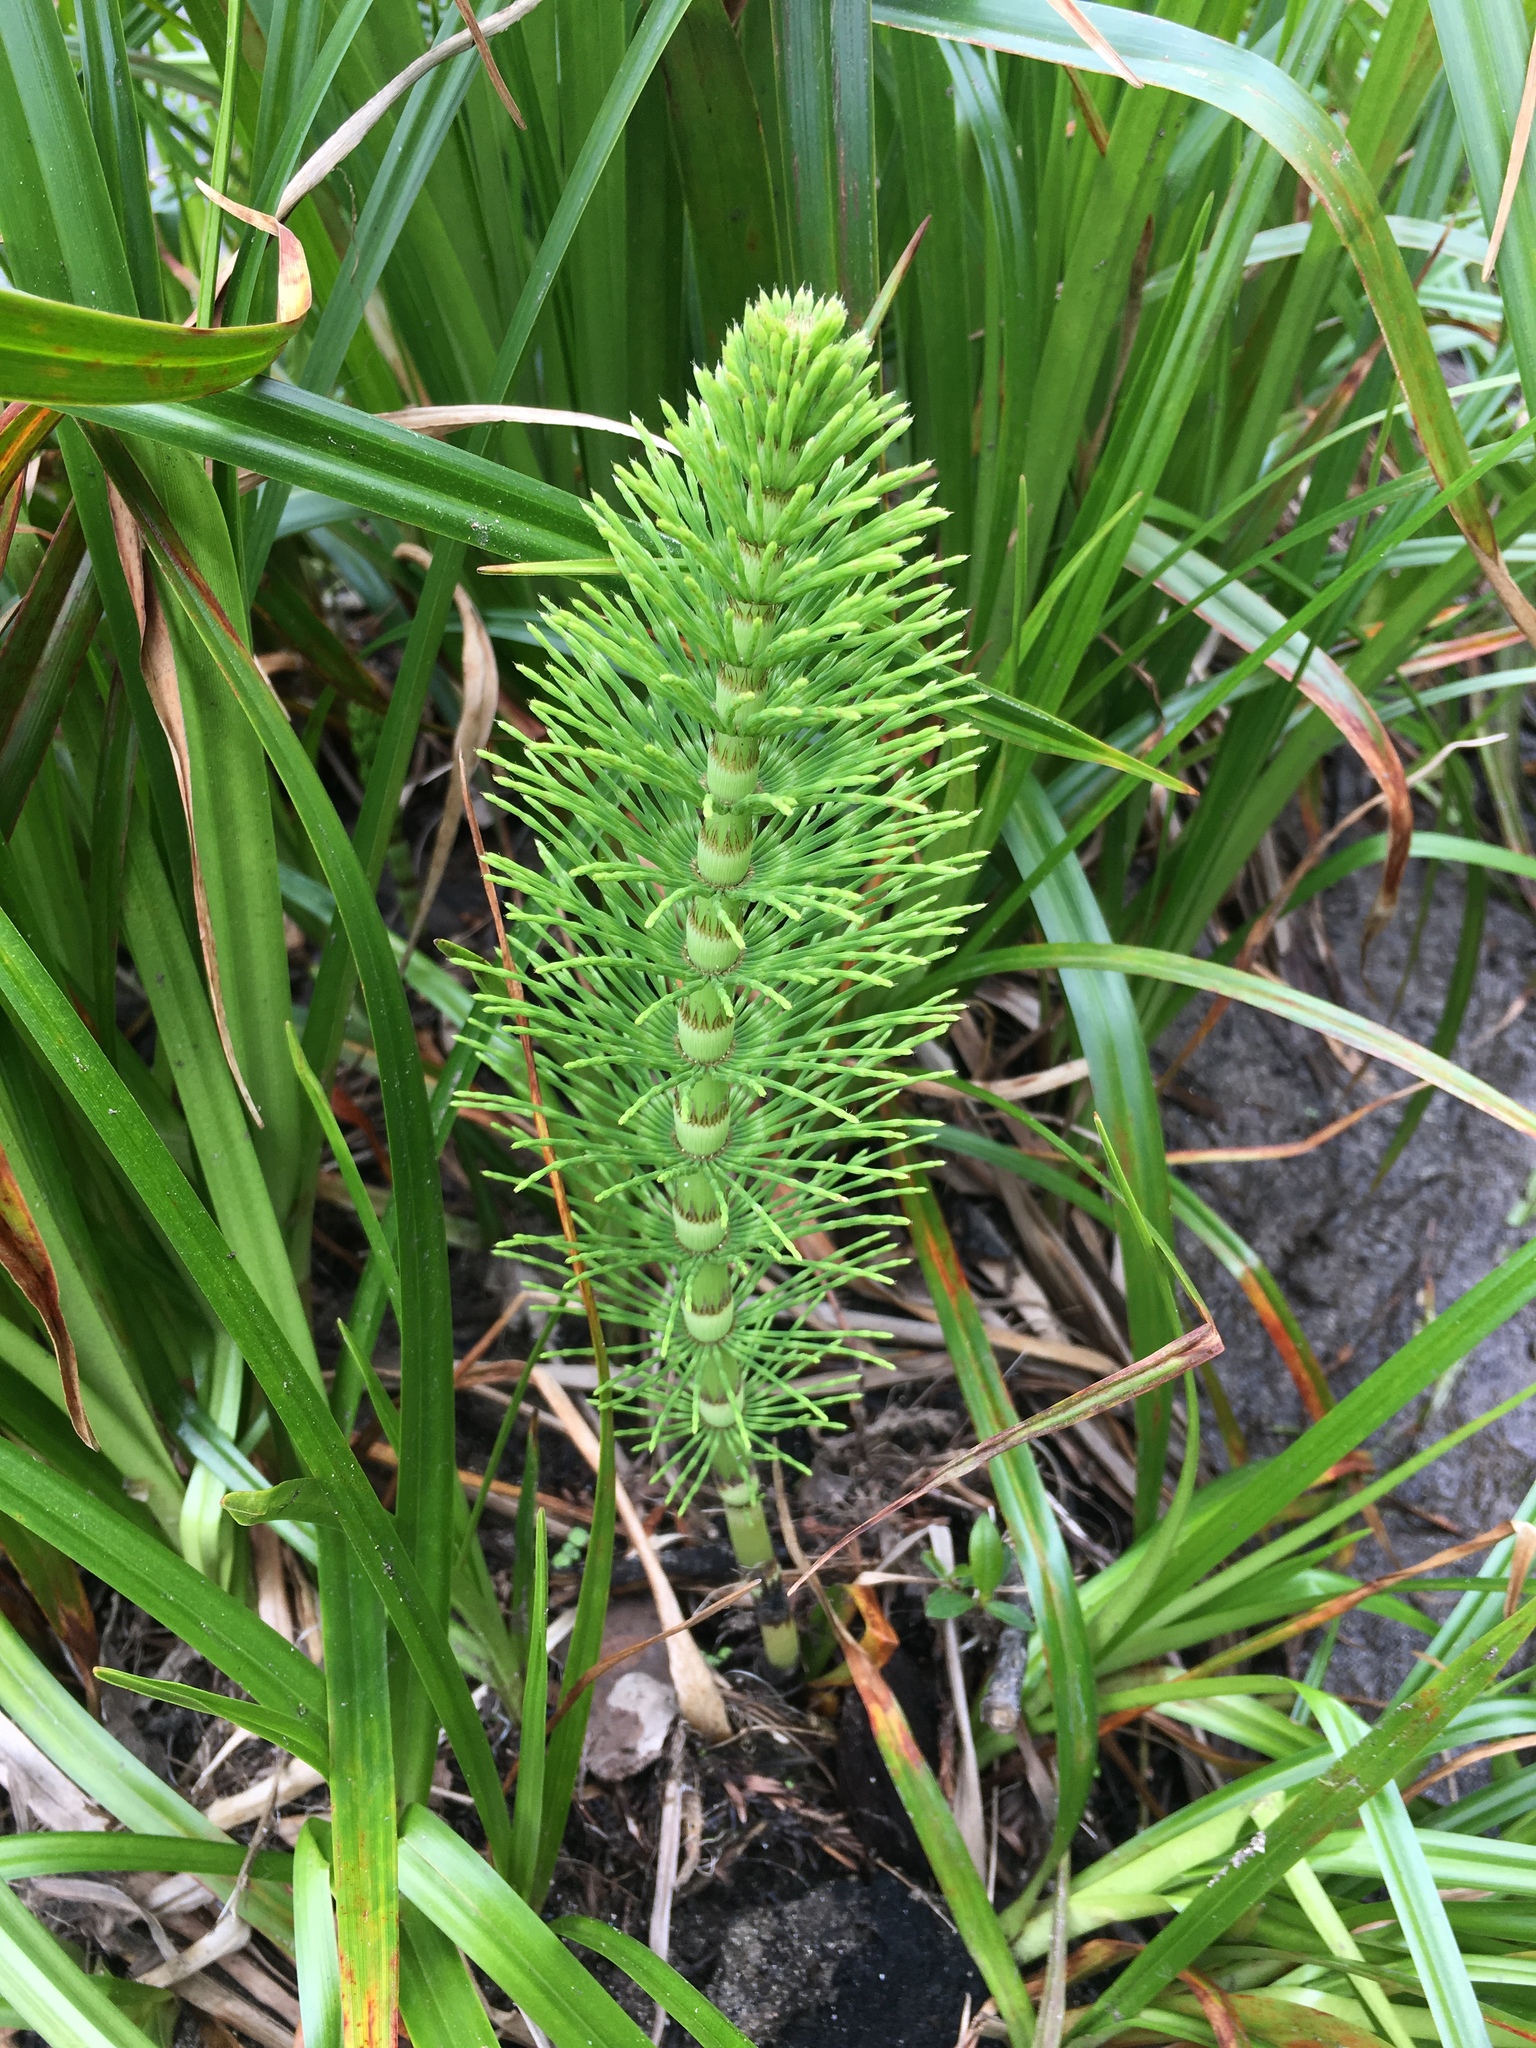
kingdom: Plantae
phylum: Tracheophyta
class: Polypodiopsida
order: Equisetales
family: Equisetaceae
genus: Equisetum
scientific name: Equisetum telmateia
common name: Great horsetail
